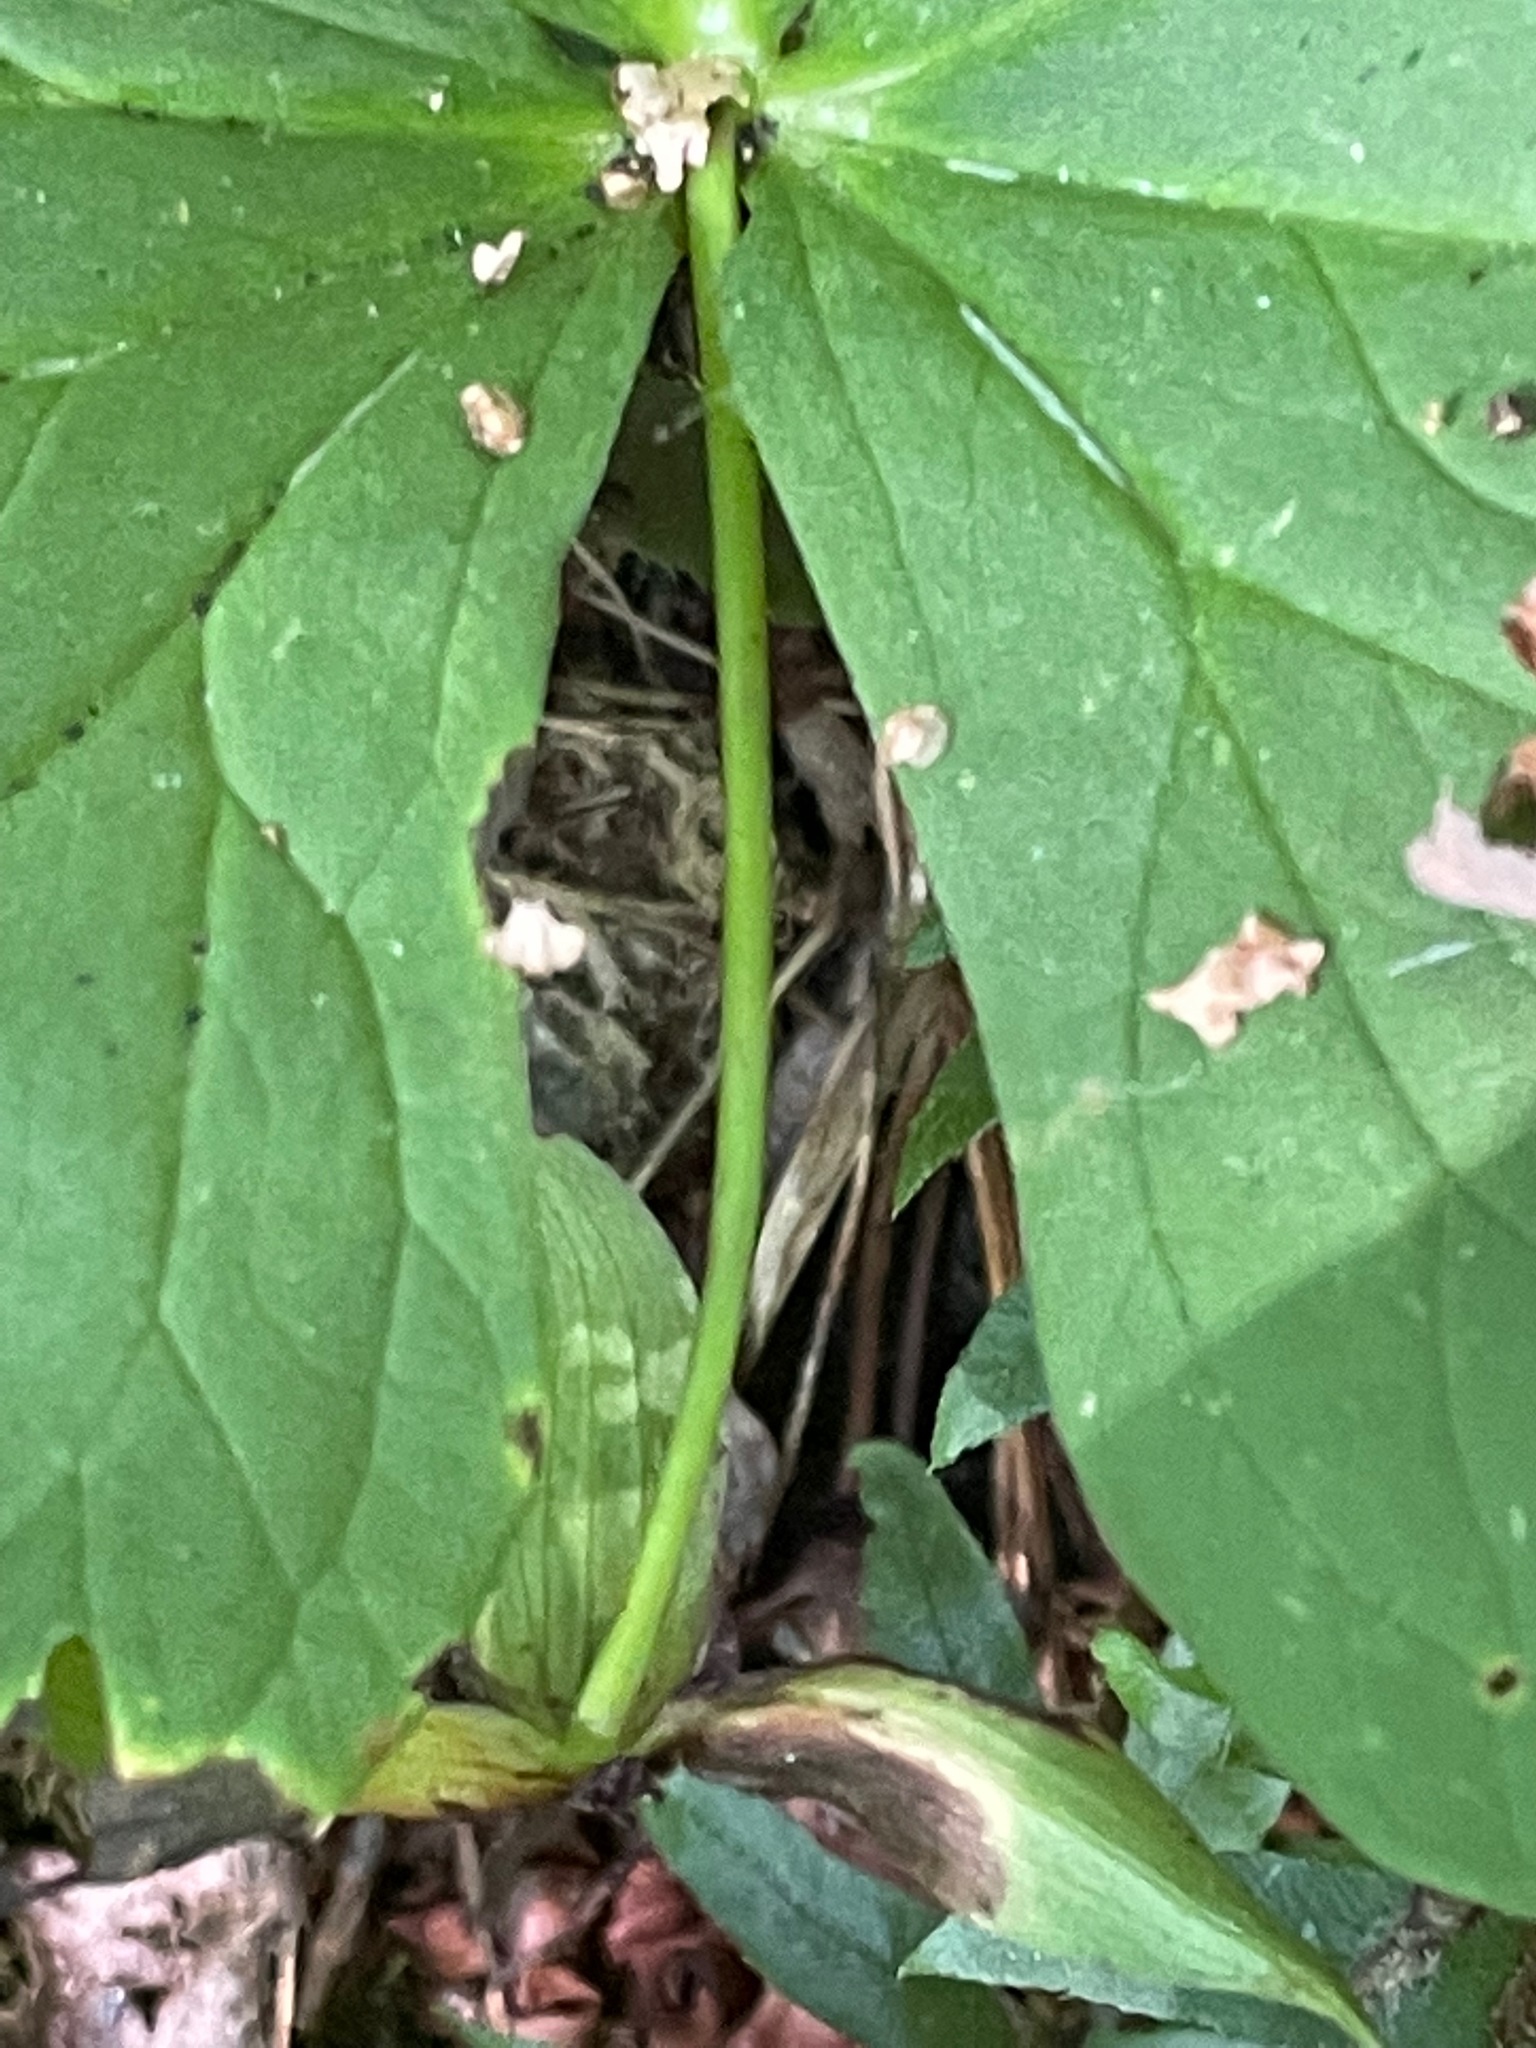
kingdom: Plantae
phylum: Tracheophyta
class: Liliopsida
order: Liliales
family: Melanthiaceae
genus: Trillium
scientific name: Trillium erectum
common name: Purple trillium
